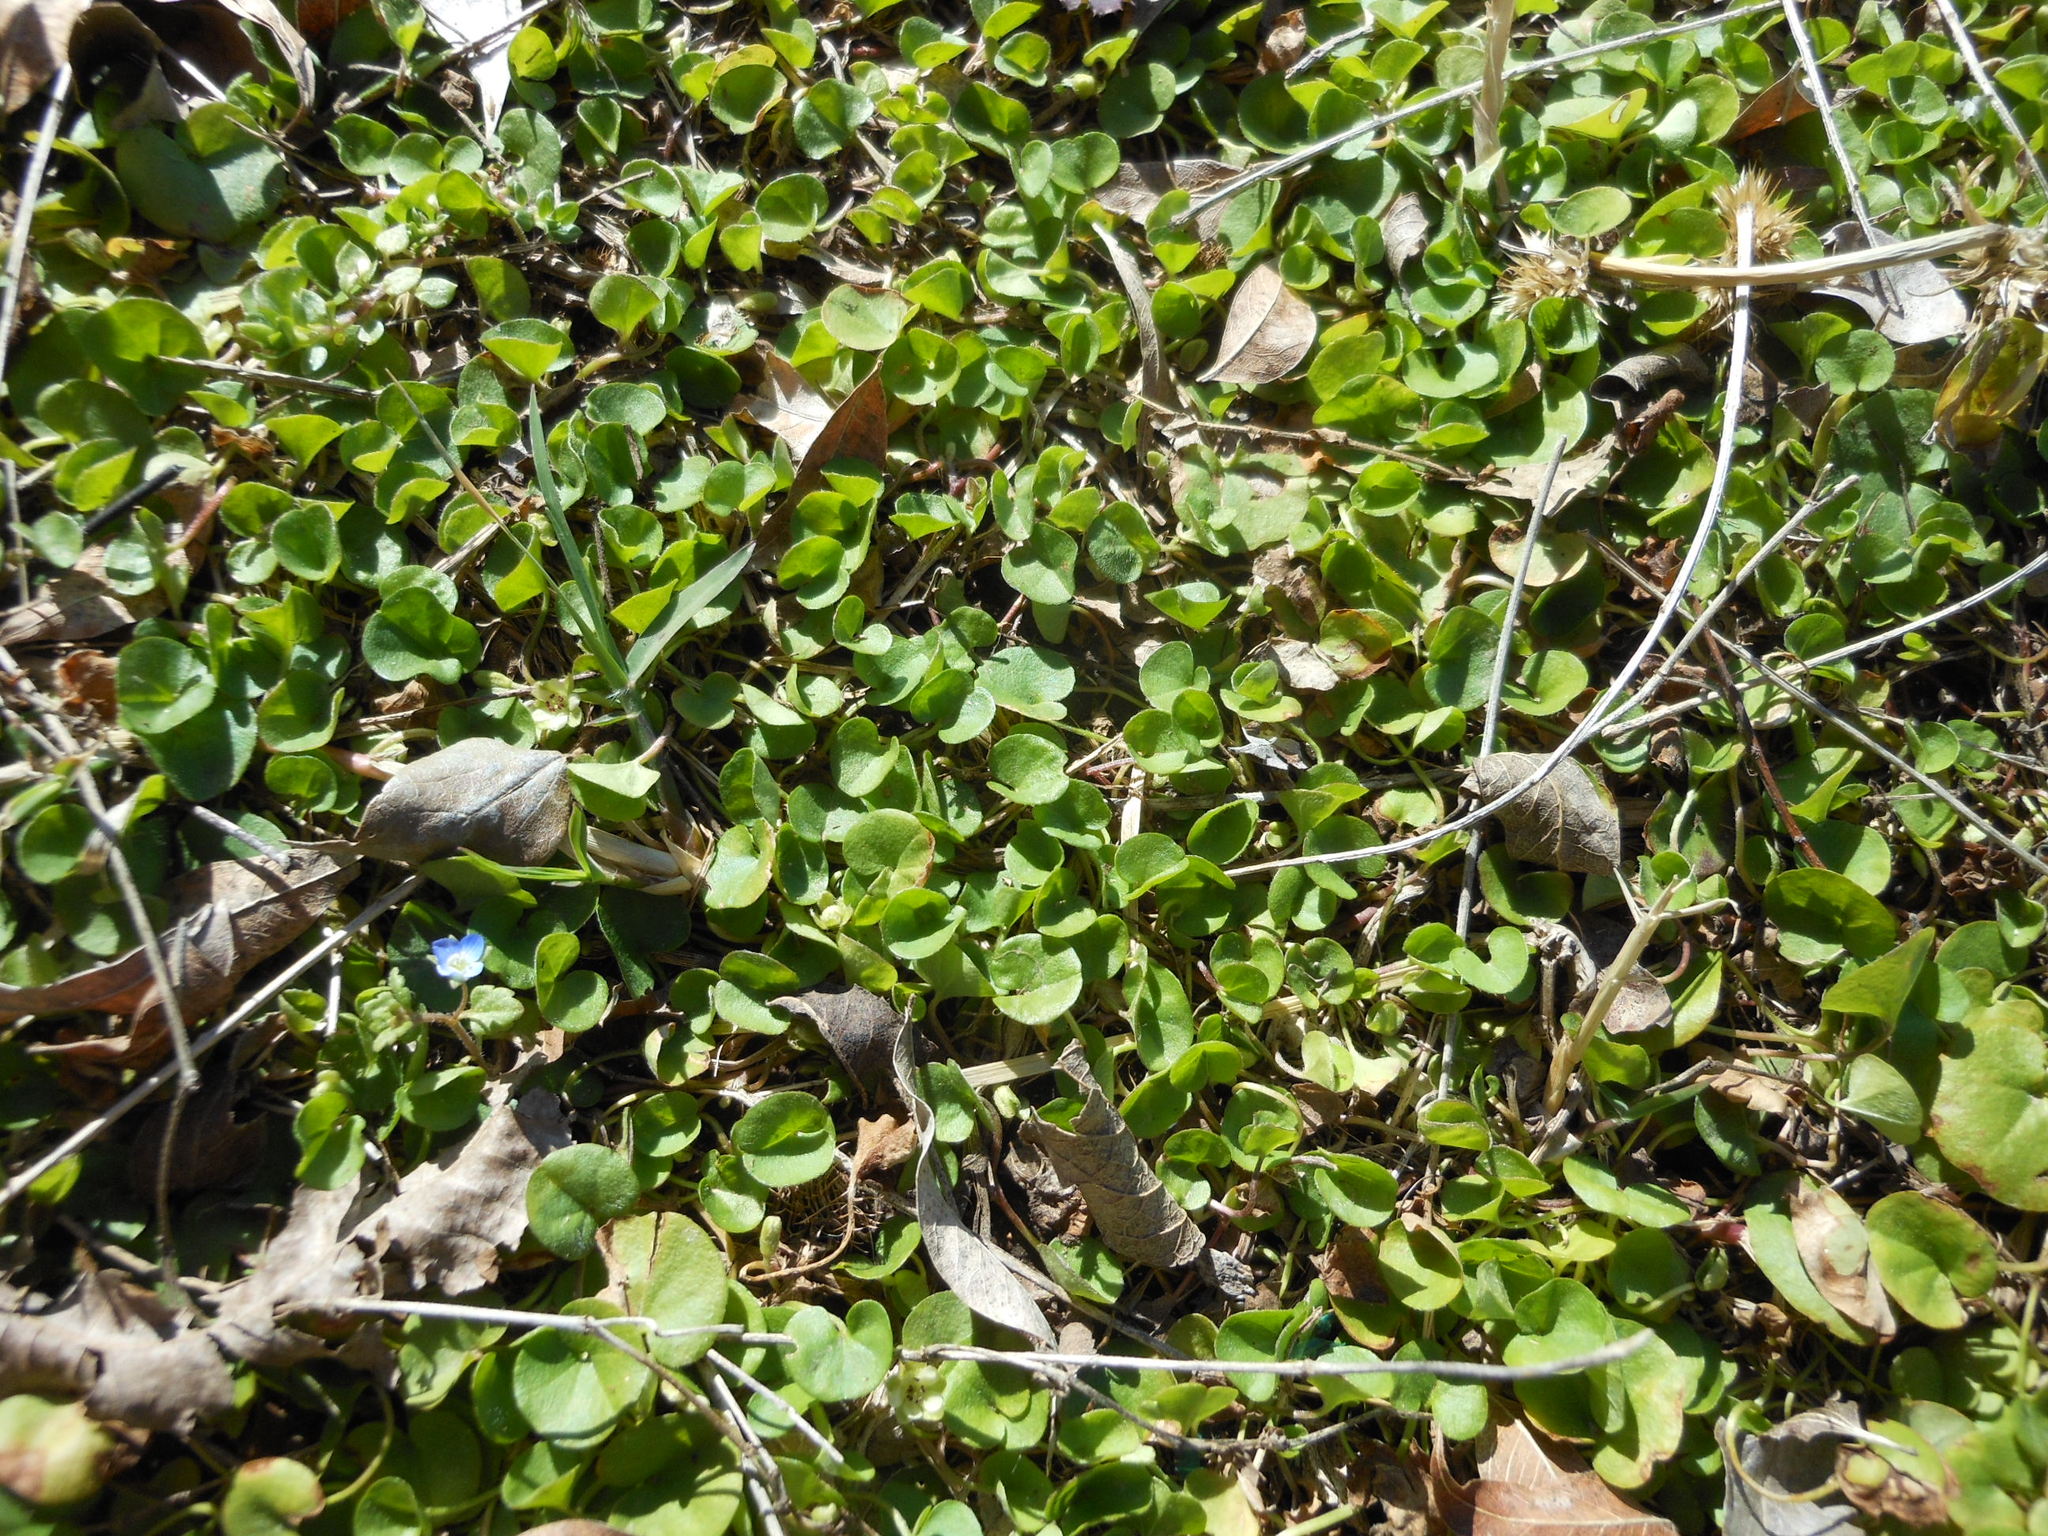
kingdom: Plantae
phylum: Tracheophyta
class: Magnoliopsida
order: Solanales
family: Convolvulaceae
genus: Dichondra
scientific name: Dichondra carolinensis
